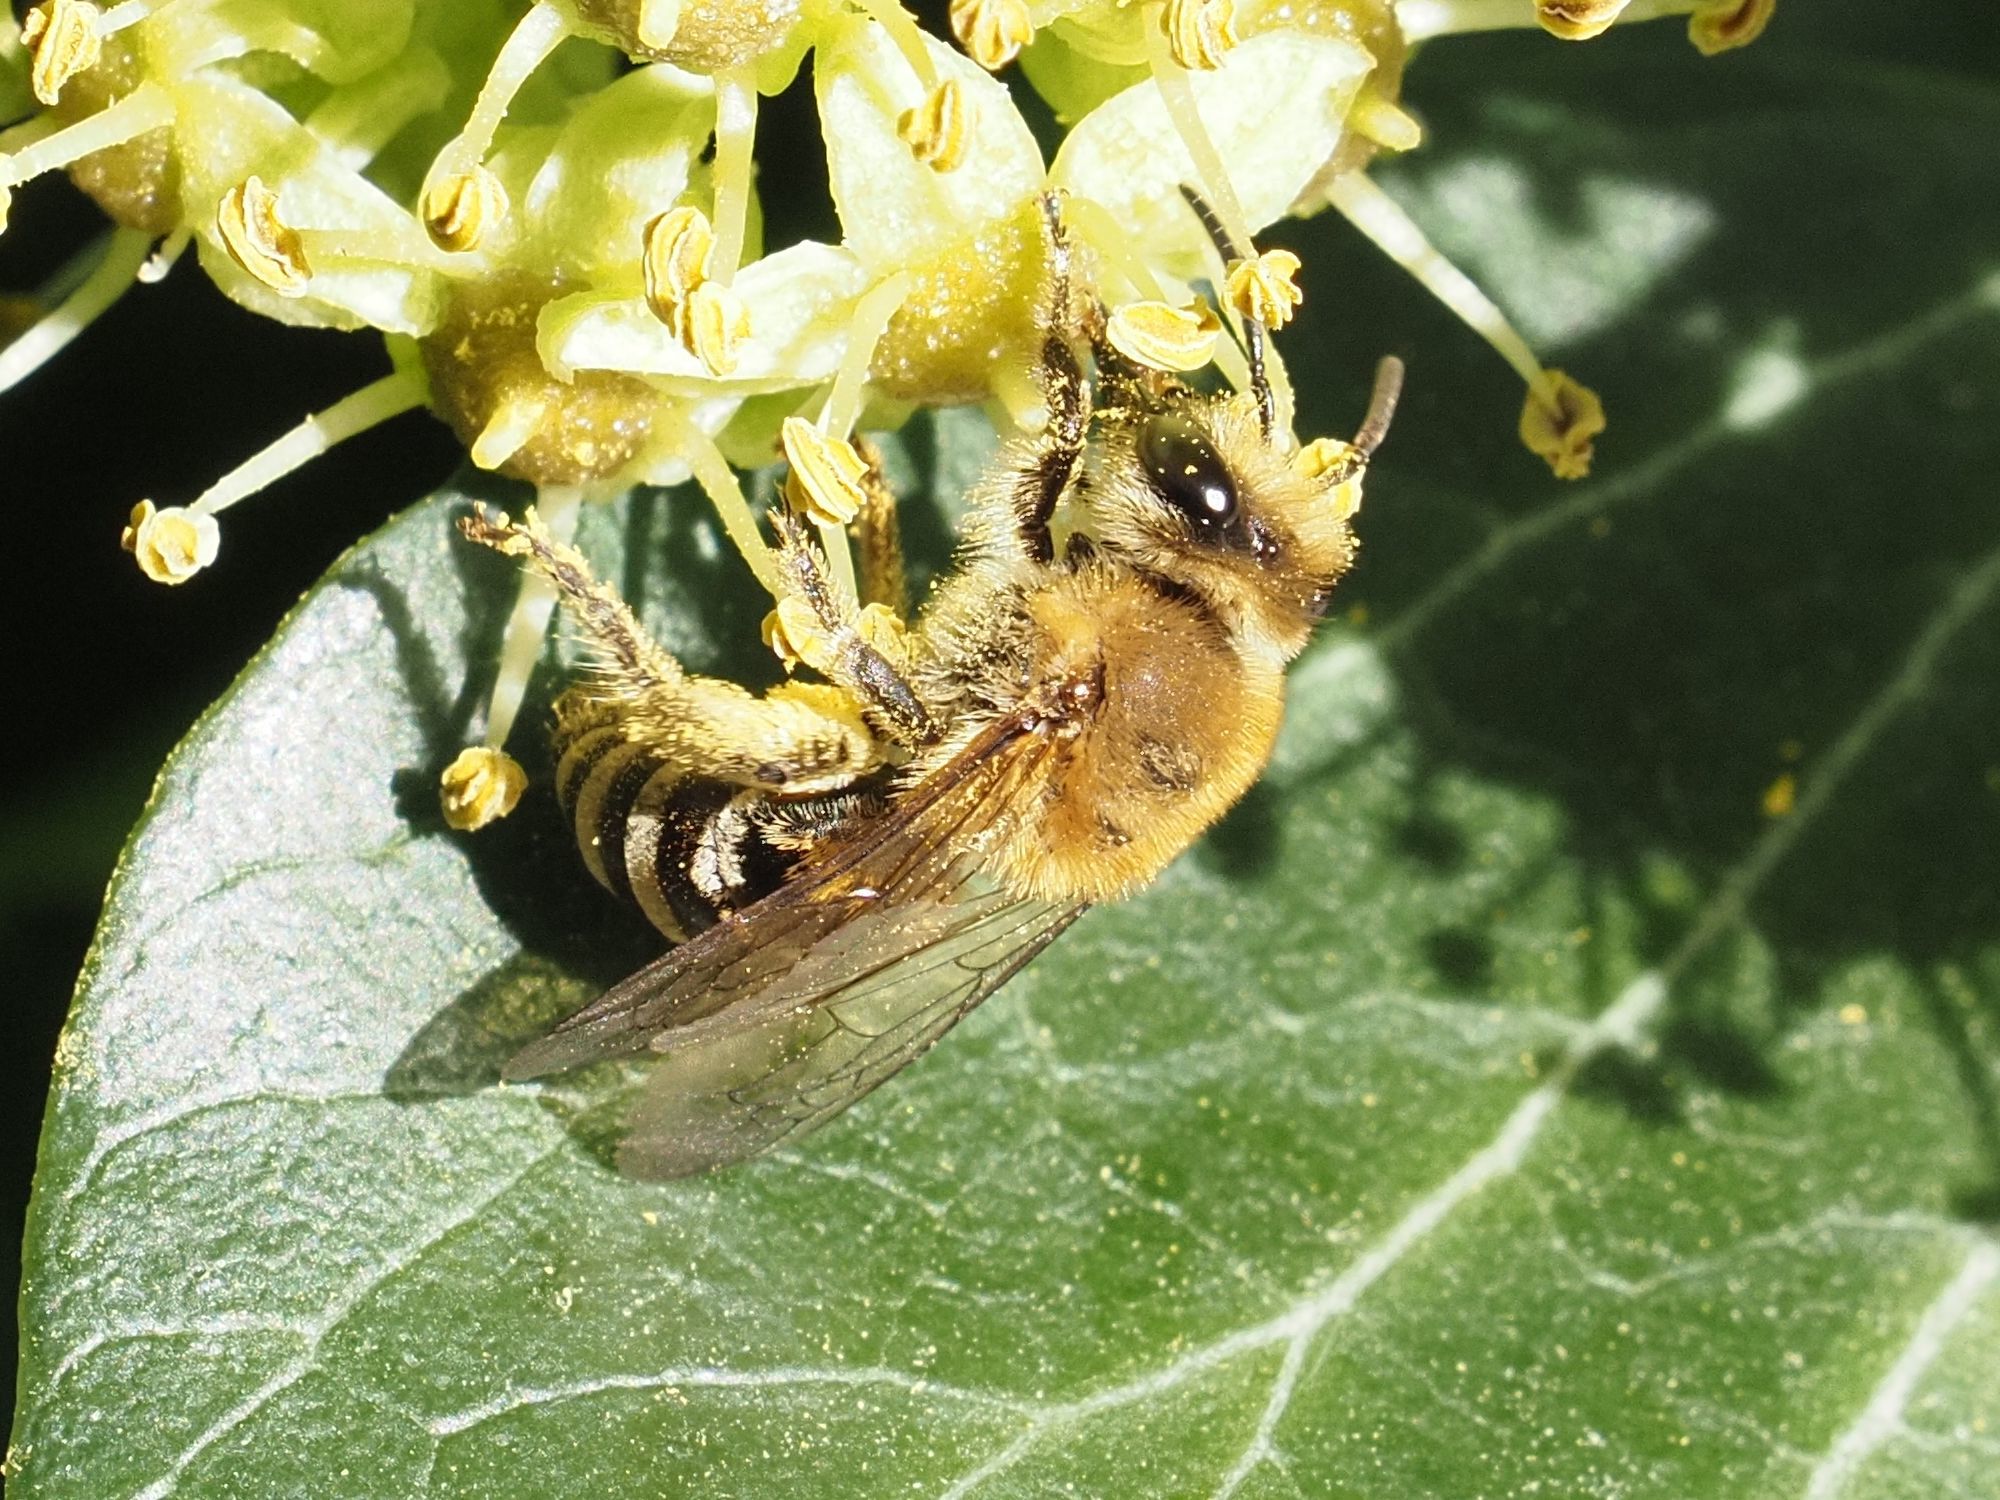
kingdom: Animalia
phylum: Arthropoda
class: Insecta
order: Hymenoptera
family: Colletidae
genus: Colletes
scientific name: Colletes hederae
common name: Ivy bee
